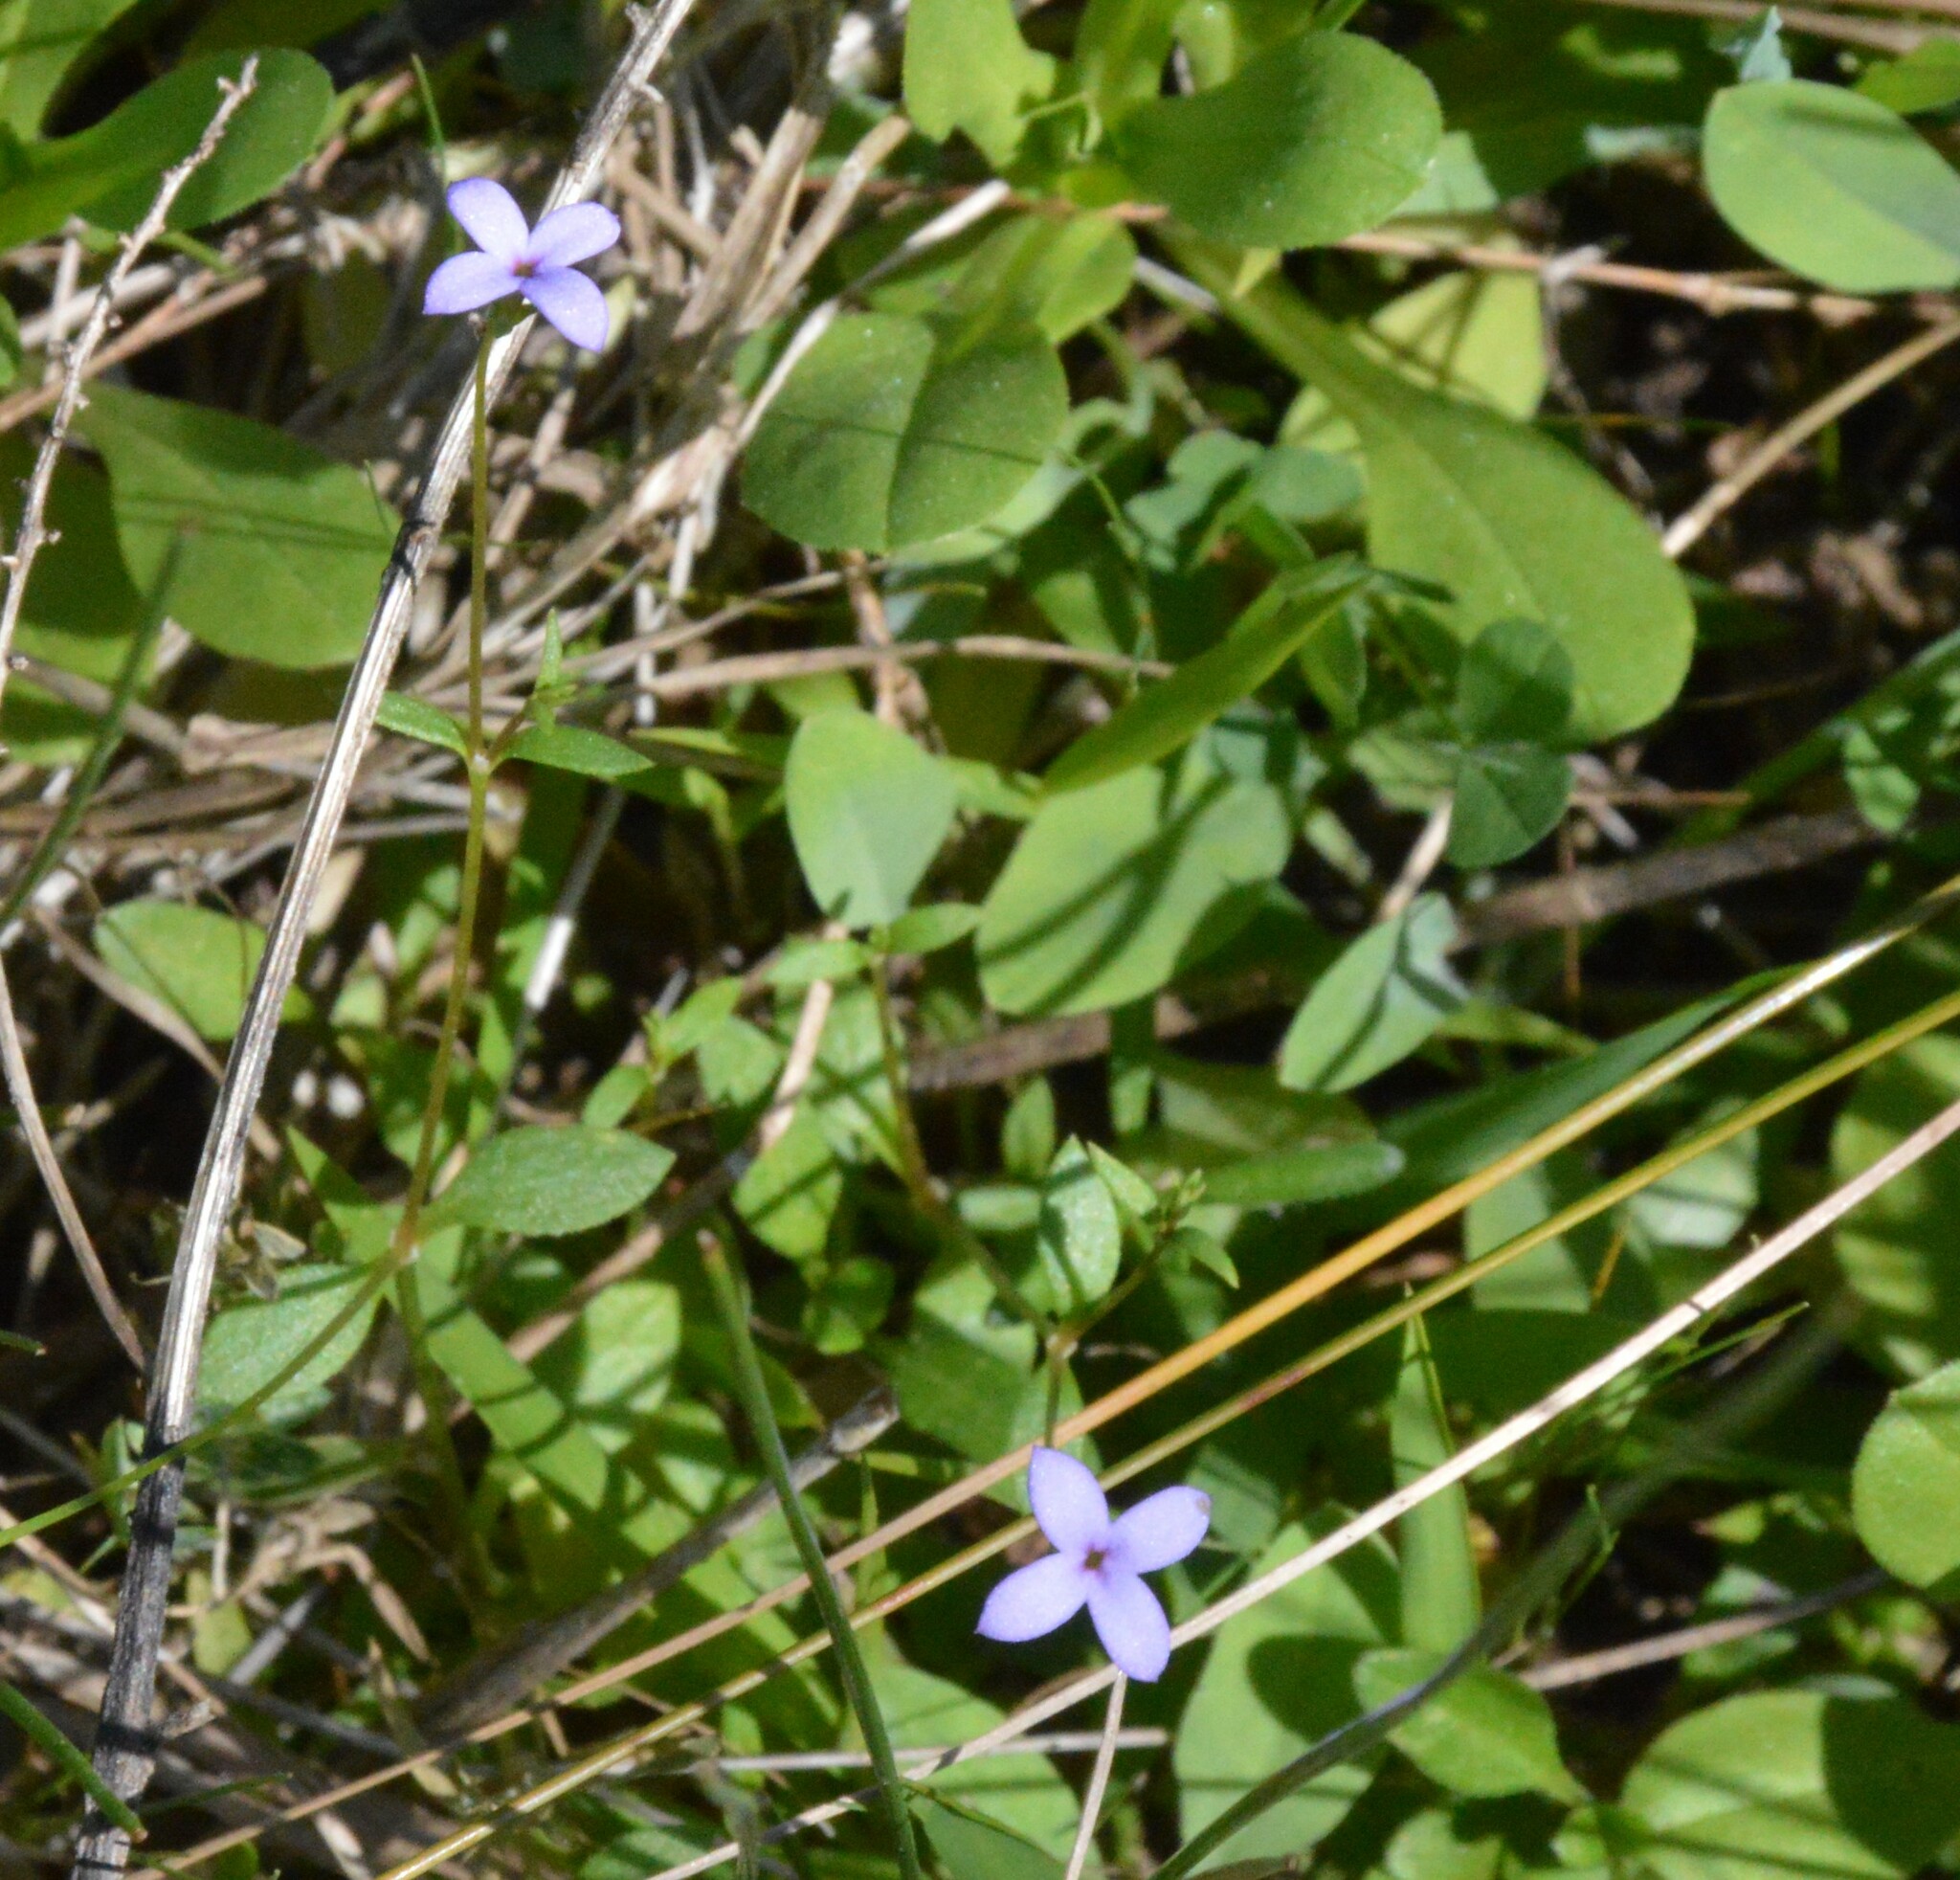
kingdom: Plantae
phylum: Tracheophyta
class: Magnoliopsida
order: Gentianales
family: Rubiaceae
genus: Houstonia
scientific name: Houstonia pusilla
